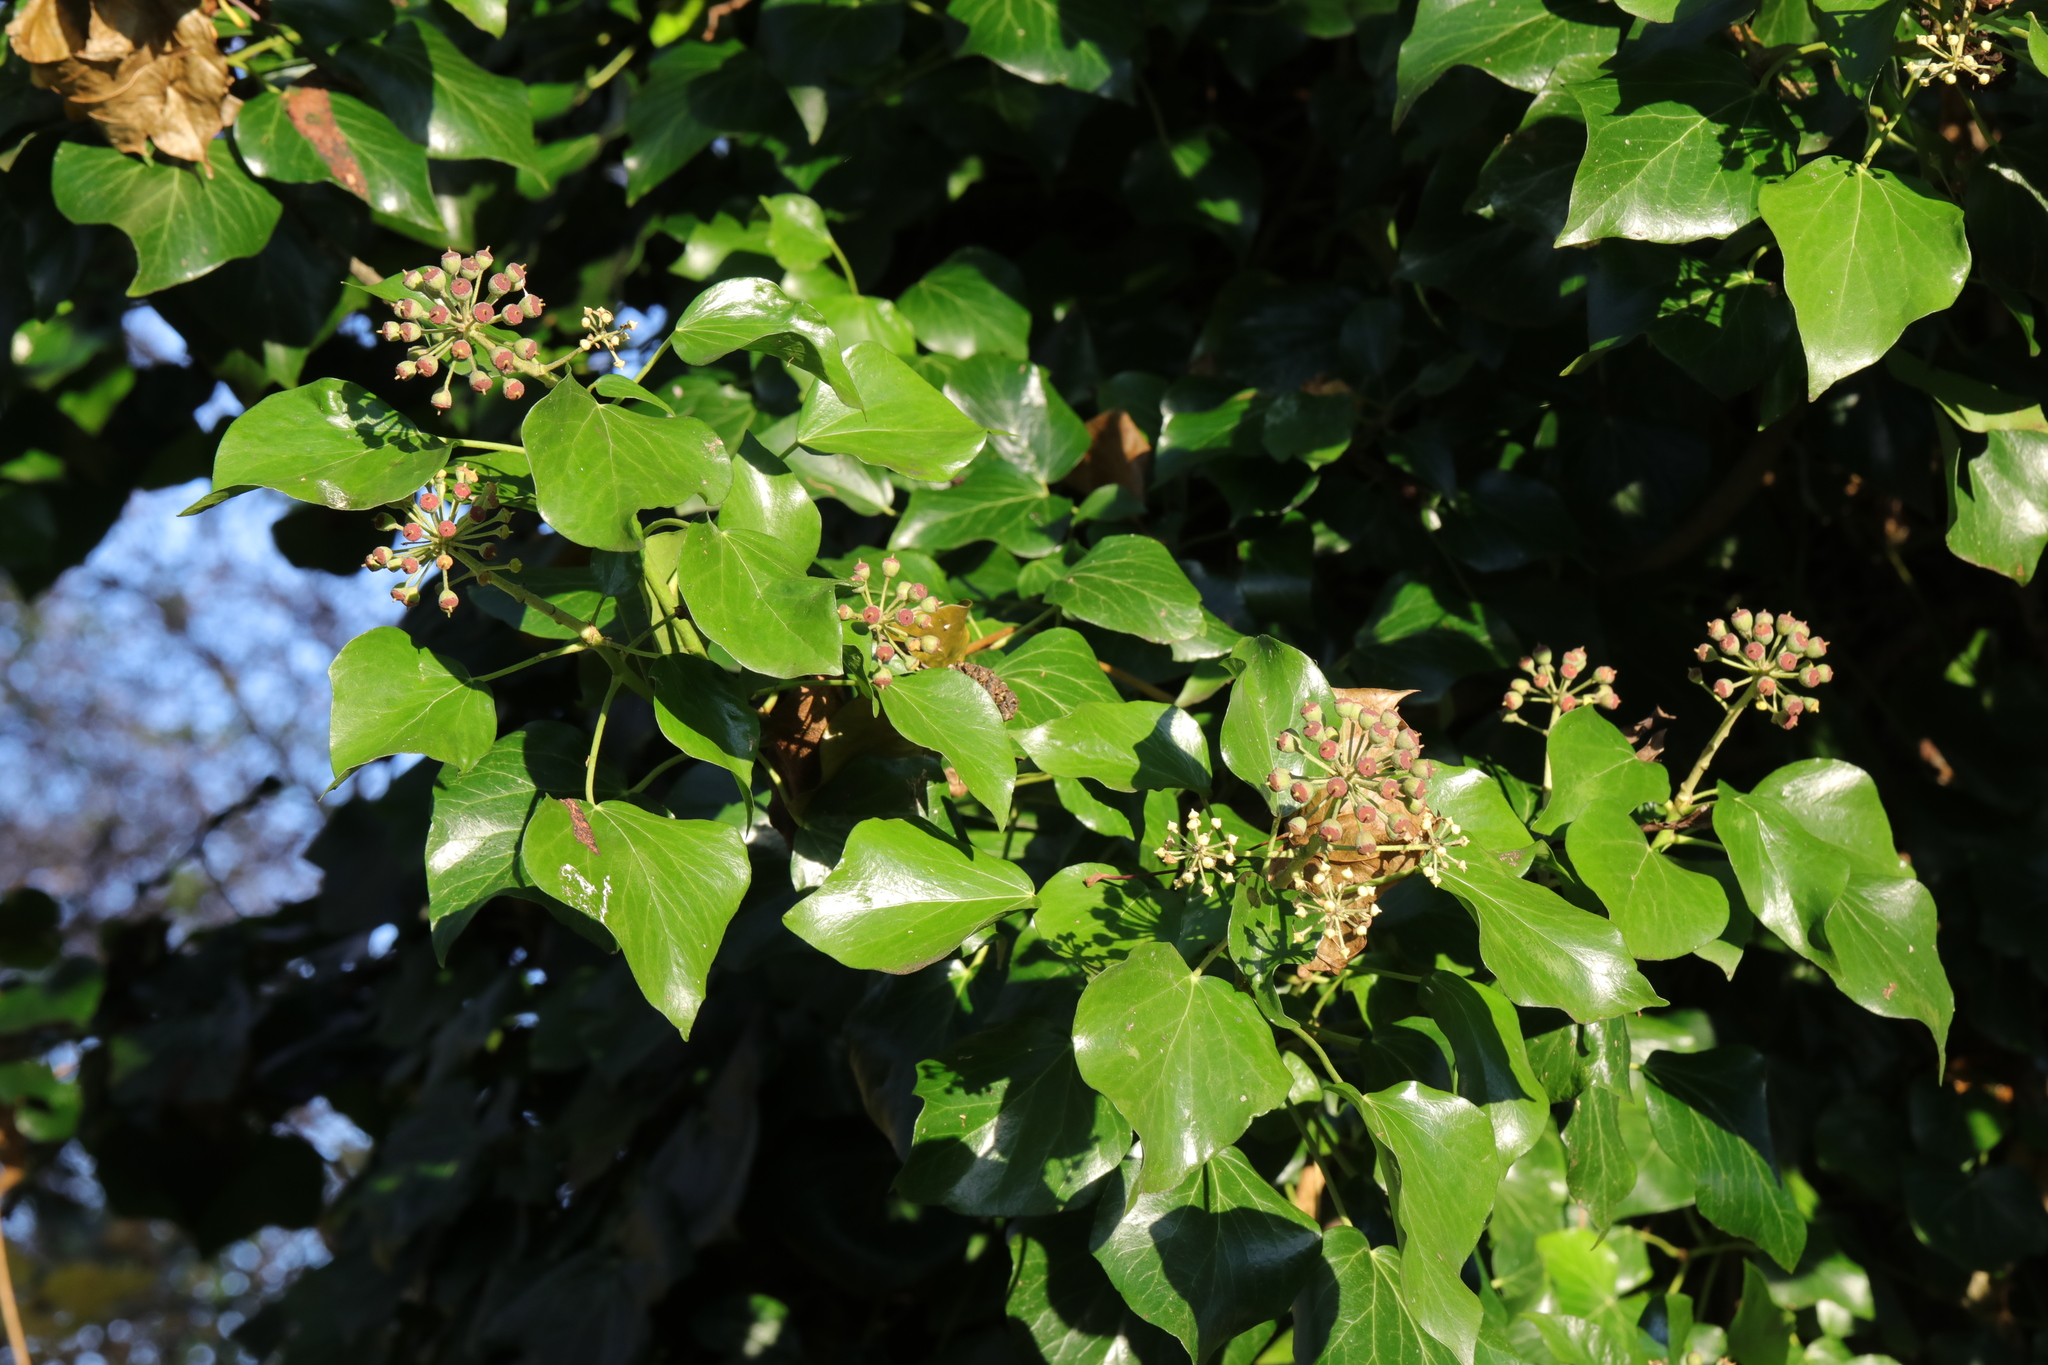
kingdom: Plantae
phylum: Tracheophyta
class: Magnoliopsida
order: Apiales
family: Araliaceae
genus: Hedera
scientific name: Hedera helix
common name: Ivy
